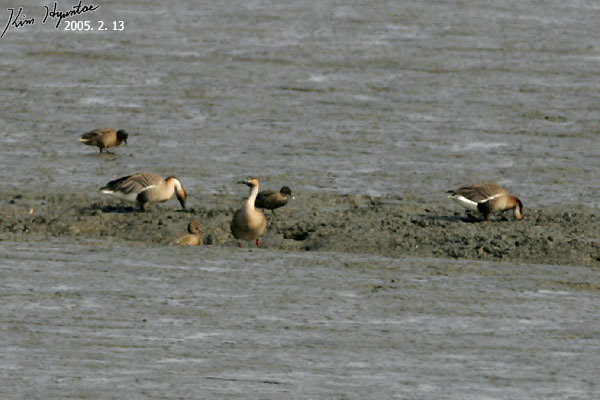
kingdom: Animalia
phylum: Chordata
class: Aves
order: Anseriformes
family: Anatidae
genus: Anser
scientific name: Anser cygnoides
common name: Swan goose
